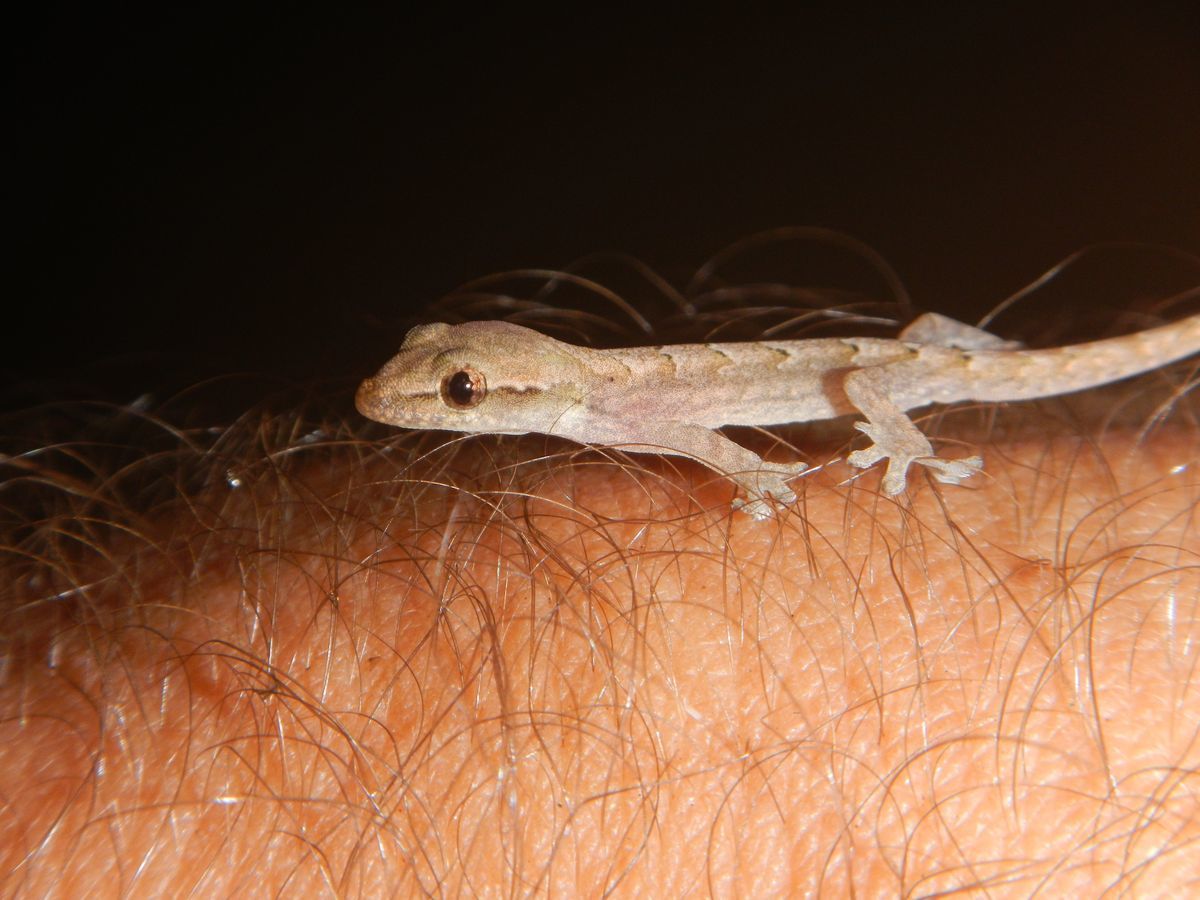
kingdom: Animalia
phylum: Chordata
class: Squamata
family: Gekkonidae
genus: Lepidodactylus
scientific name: Lepidodactylus lugubris
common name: Mourning gecko
